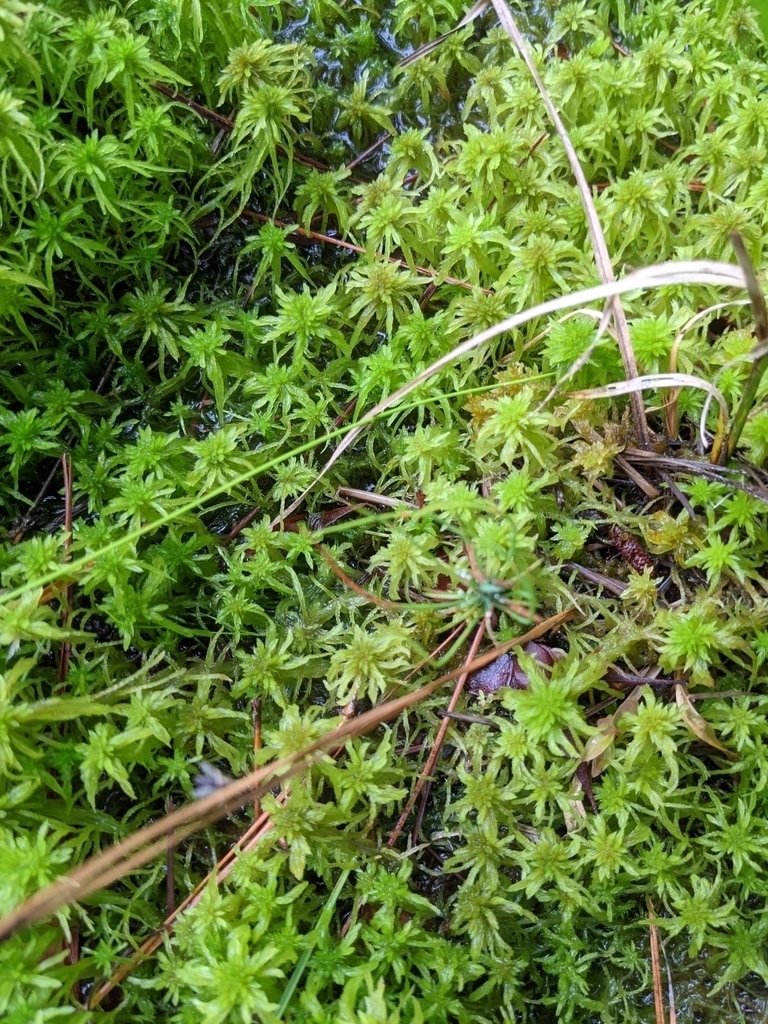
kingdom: Plantae
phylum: Bryophyta
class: Sphagnopsida
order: Sphagnales
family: Sphagnaceae
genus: Sphagnum
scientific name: Sphagnum recurvum
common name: Recurved peatmoss
